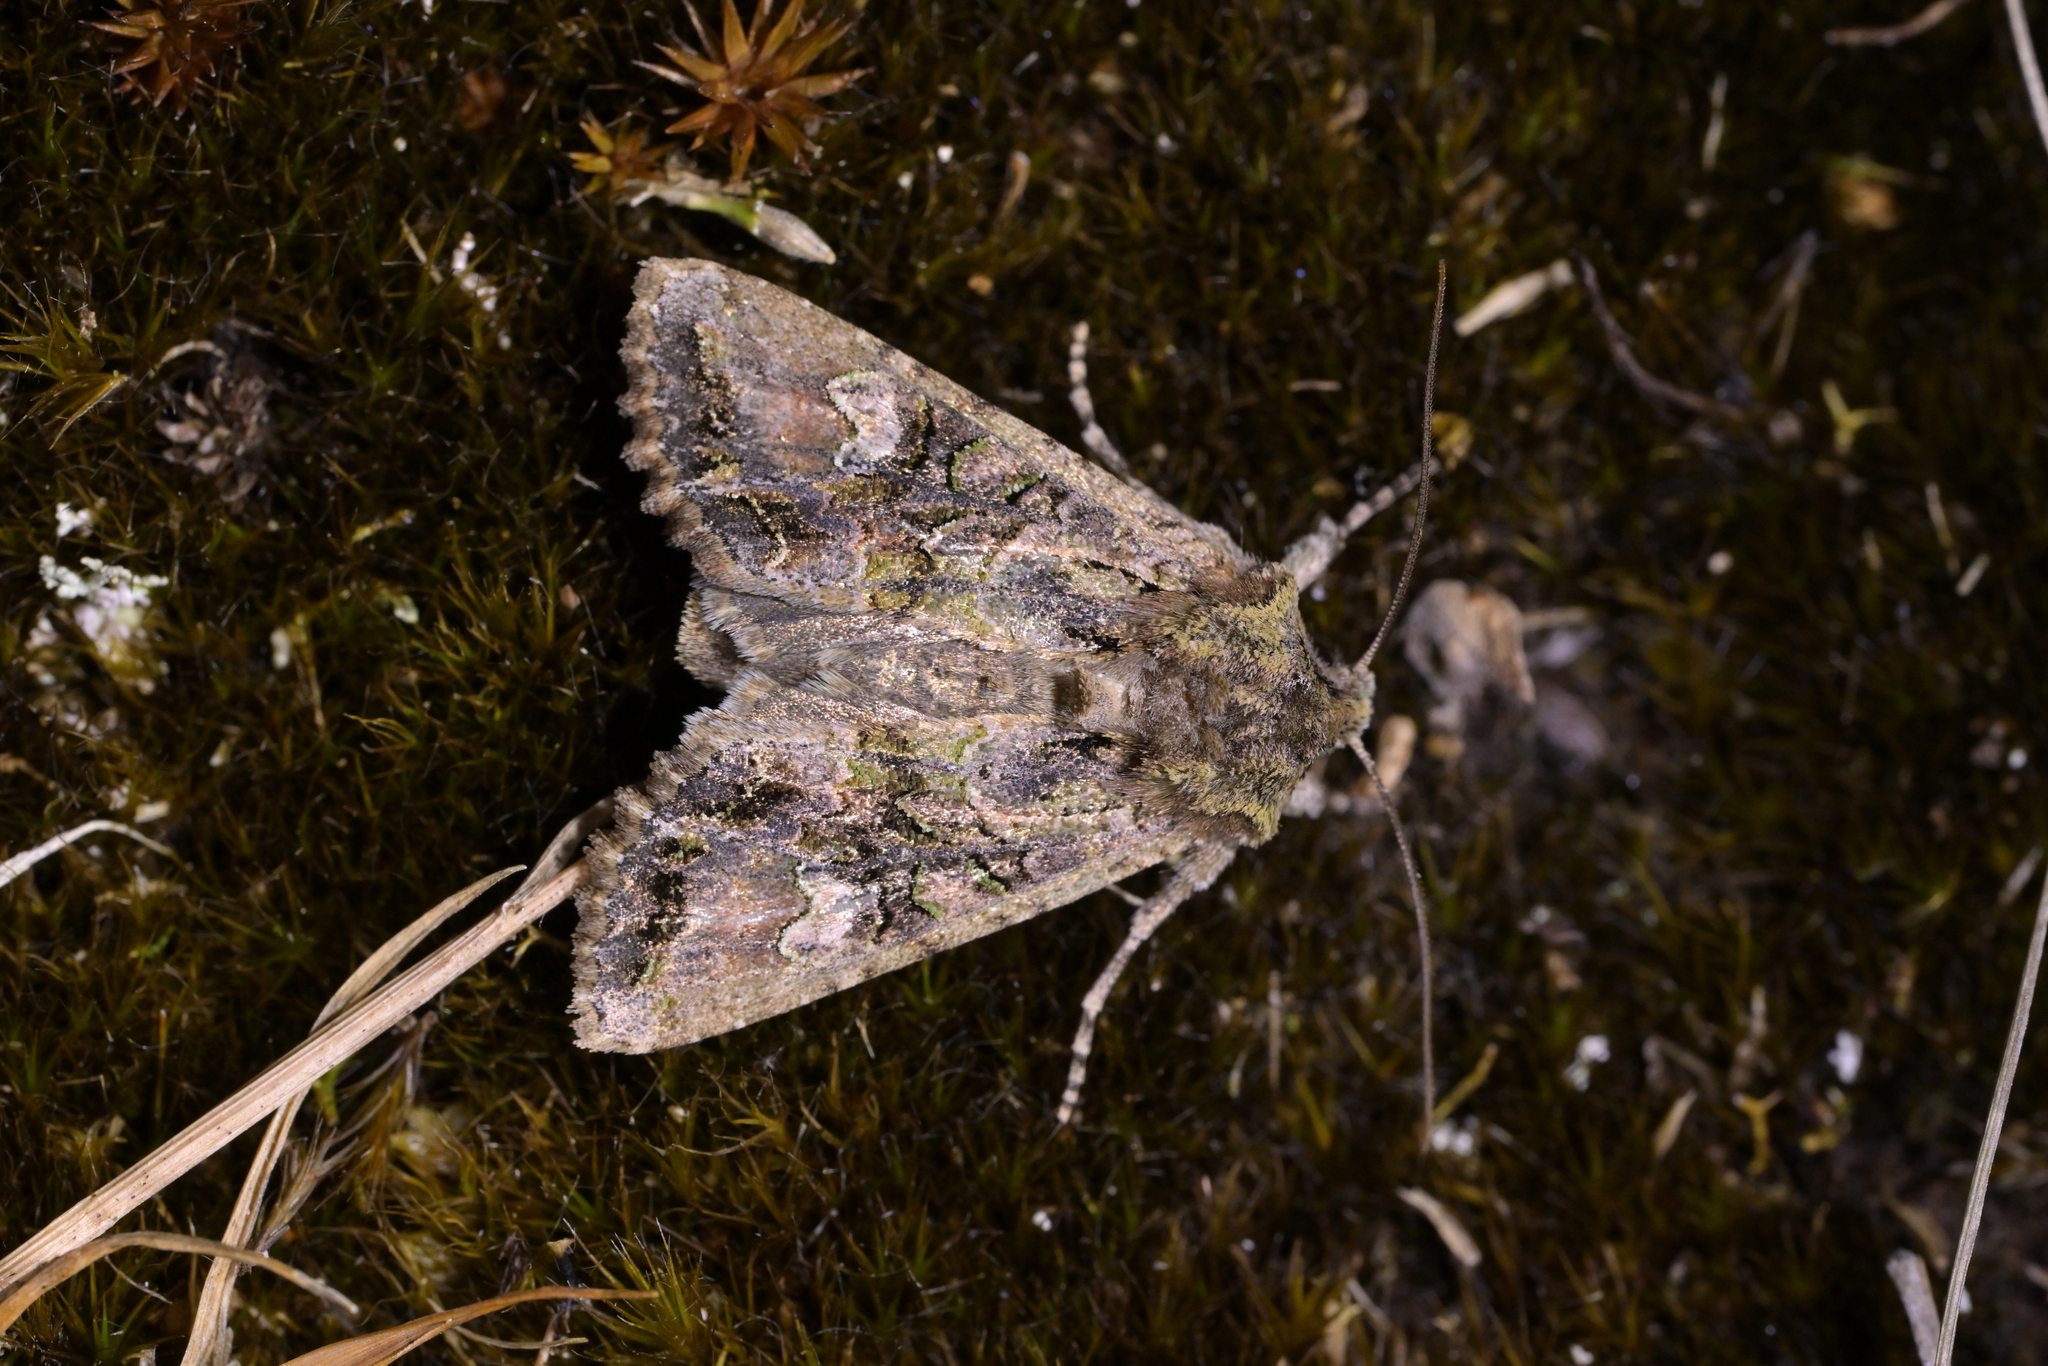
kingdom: Animalia
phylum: Arthropoda
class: Insecta
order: Lepidoptera
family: Noctuidae
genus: Ichneutica
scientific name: Ichneutica insignis
